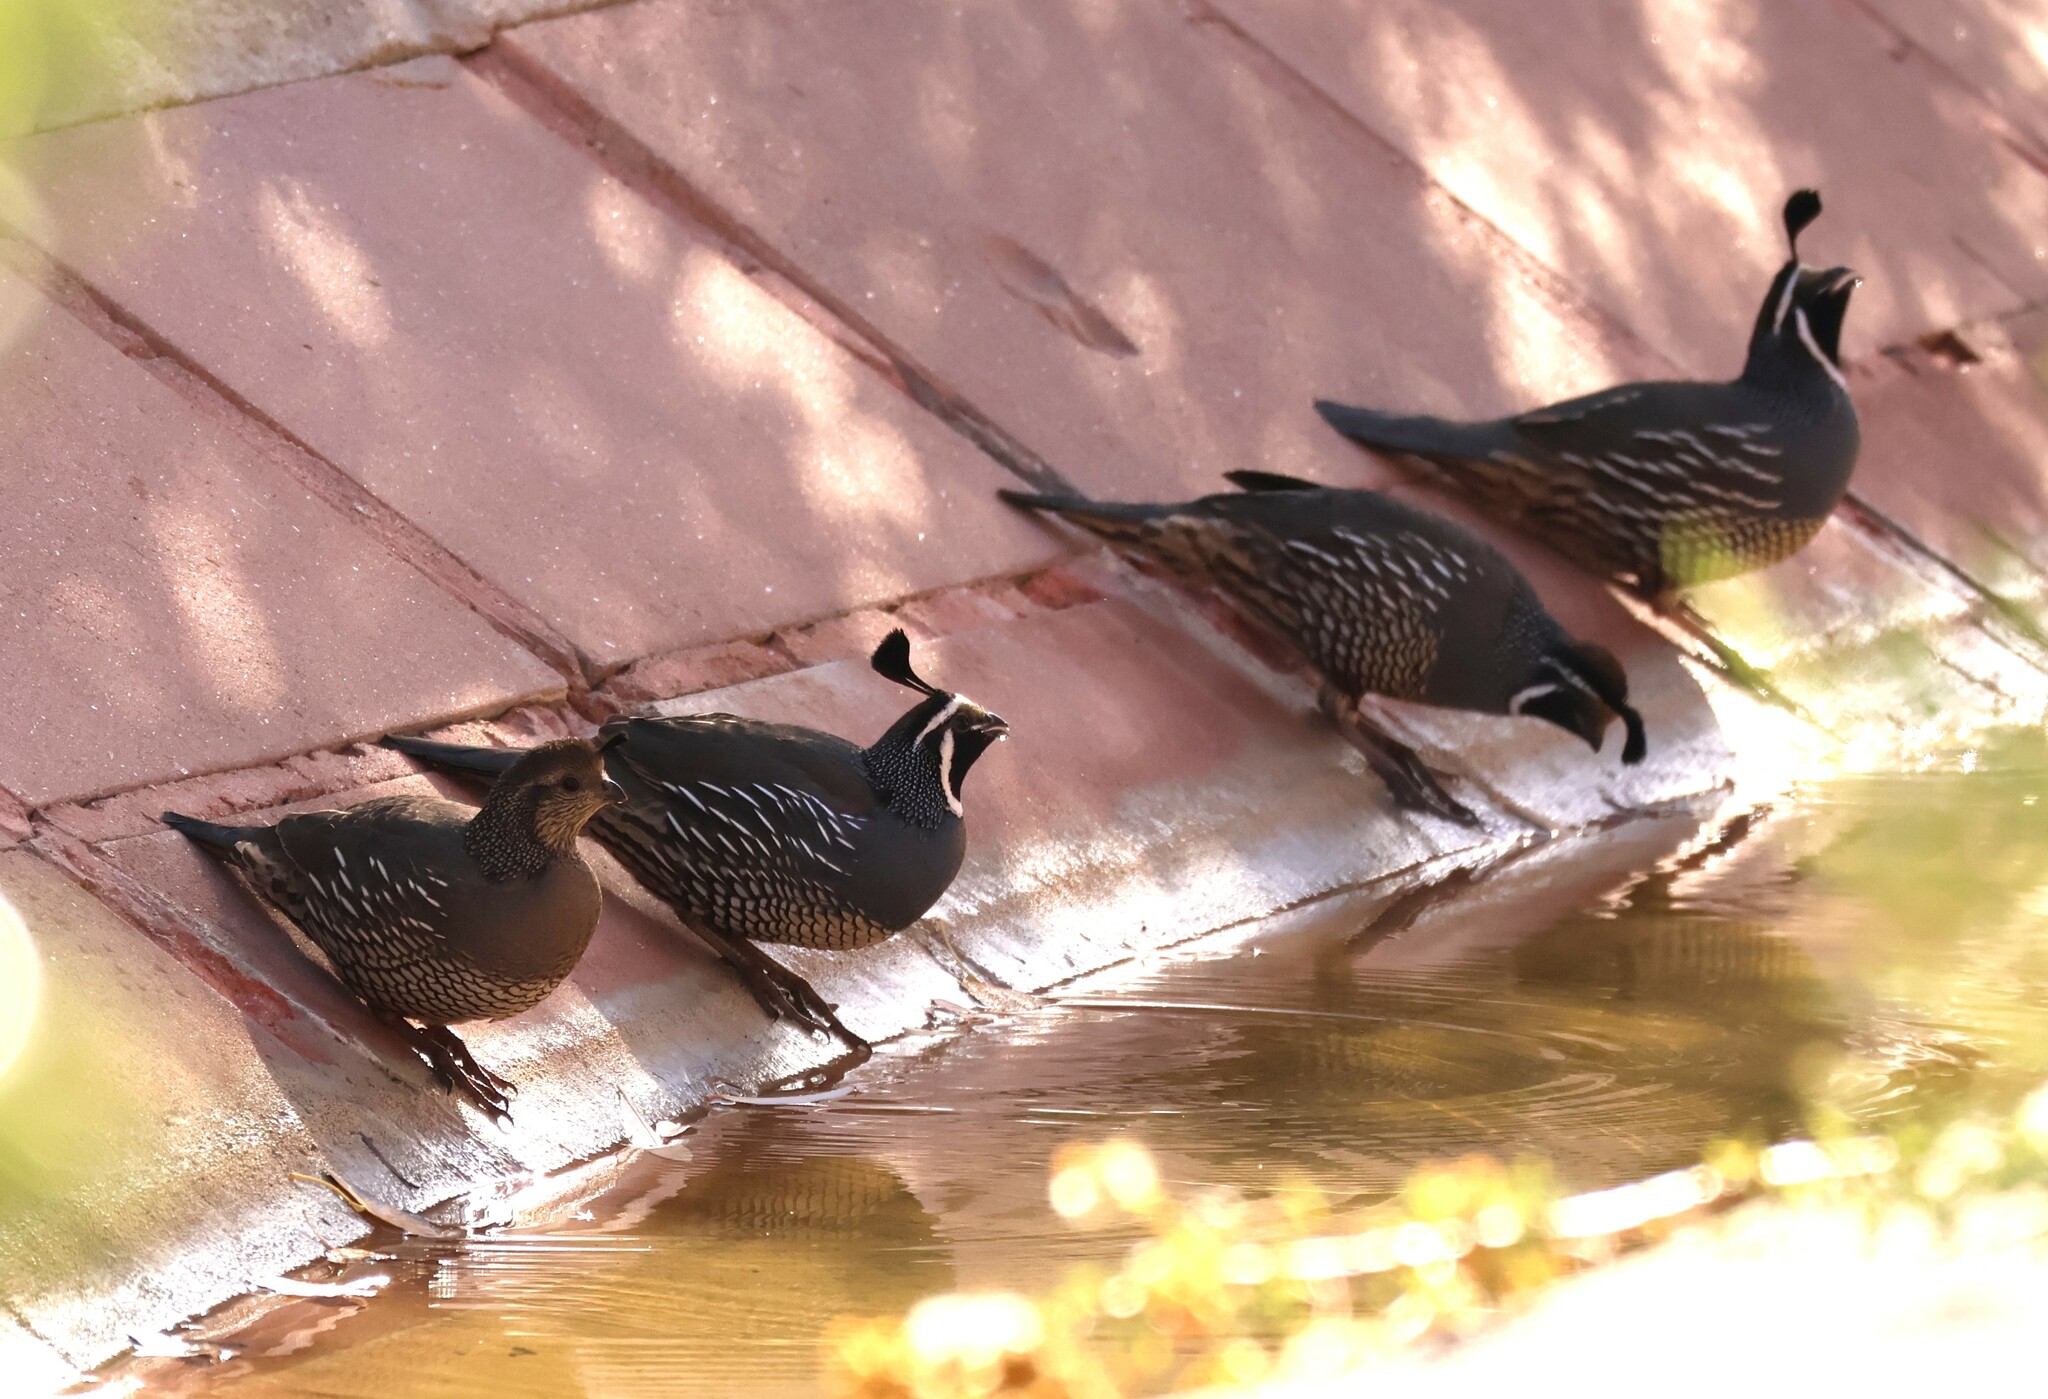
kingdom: Animalia
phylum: Chordata
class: Aves
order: Galliformes
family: Odontophoridae
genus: Callipepla
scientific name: Callipepla californica
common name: California quail
